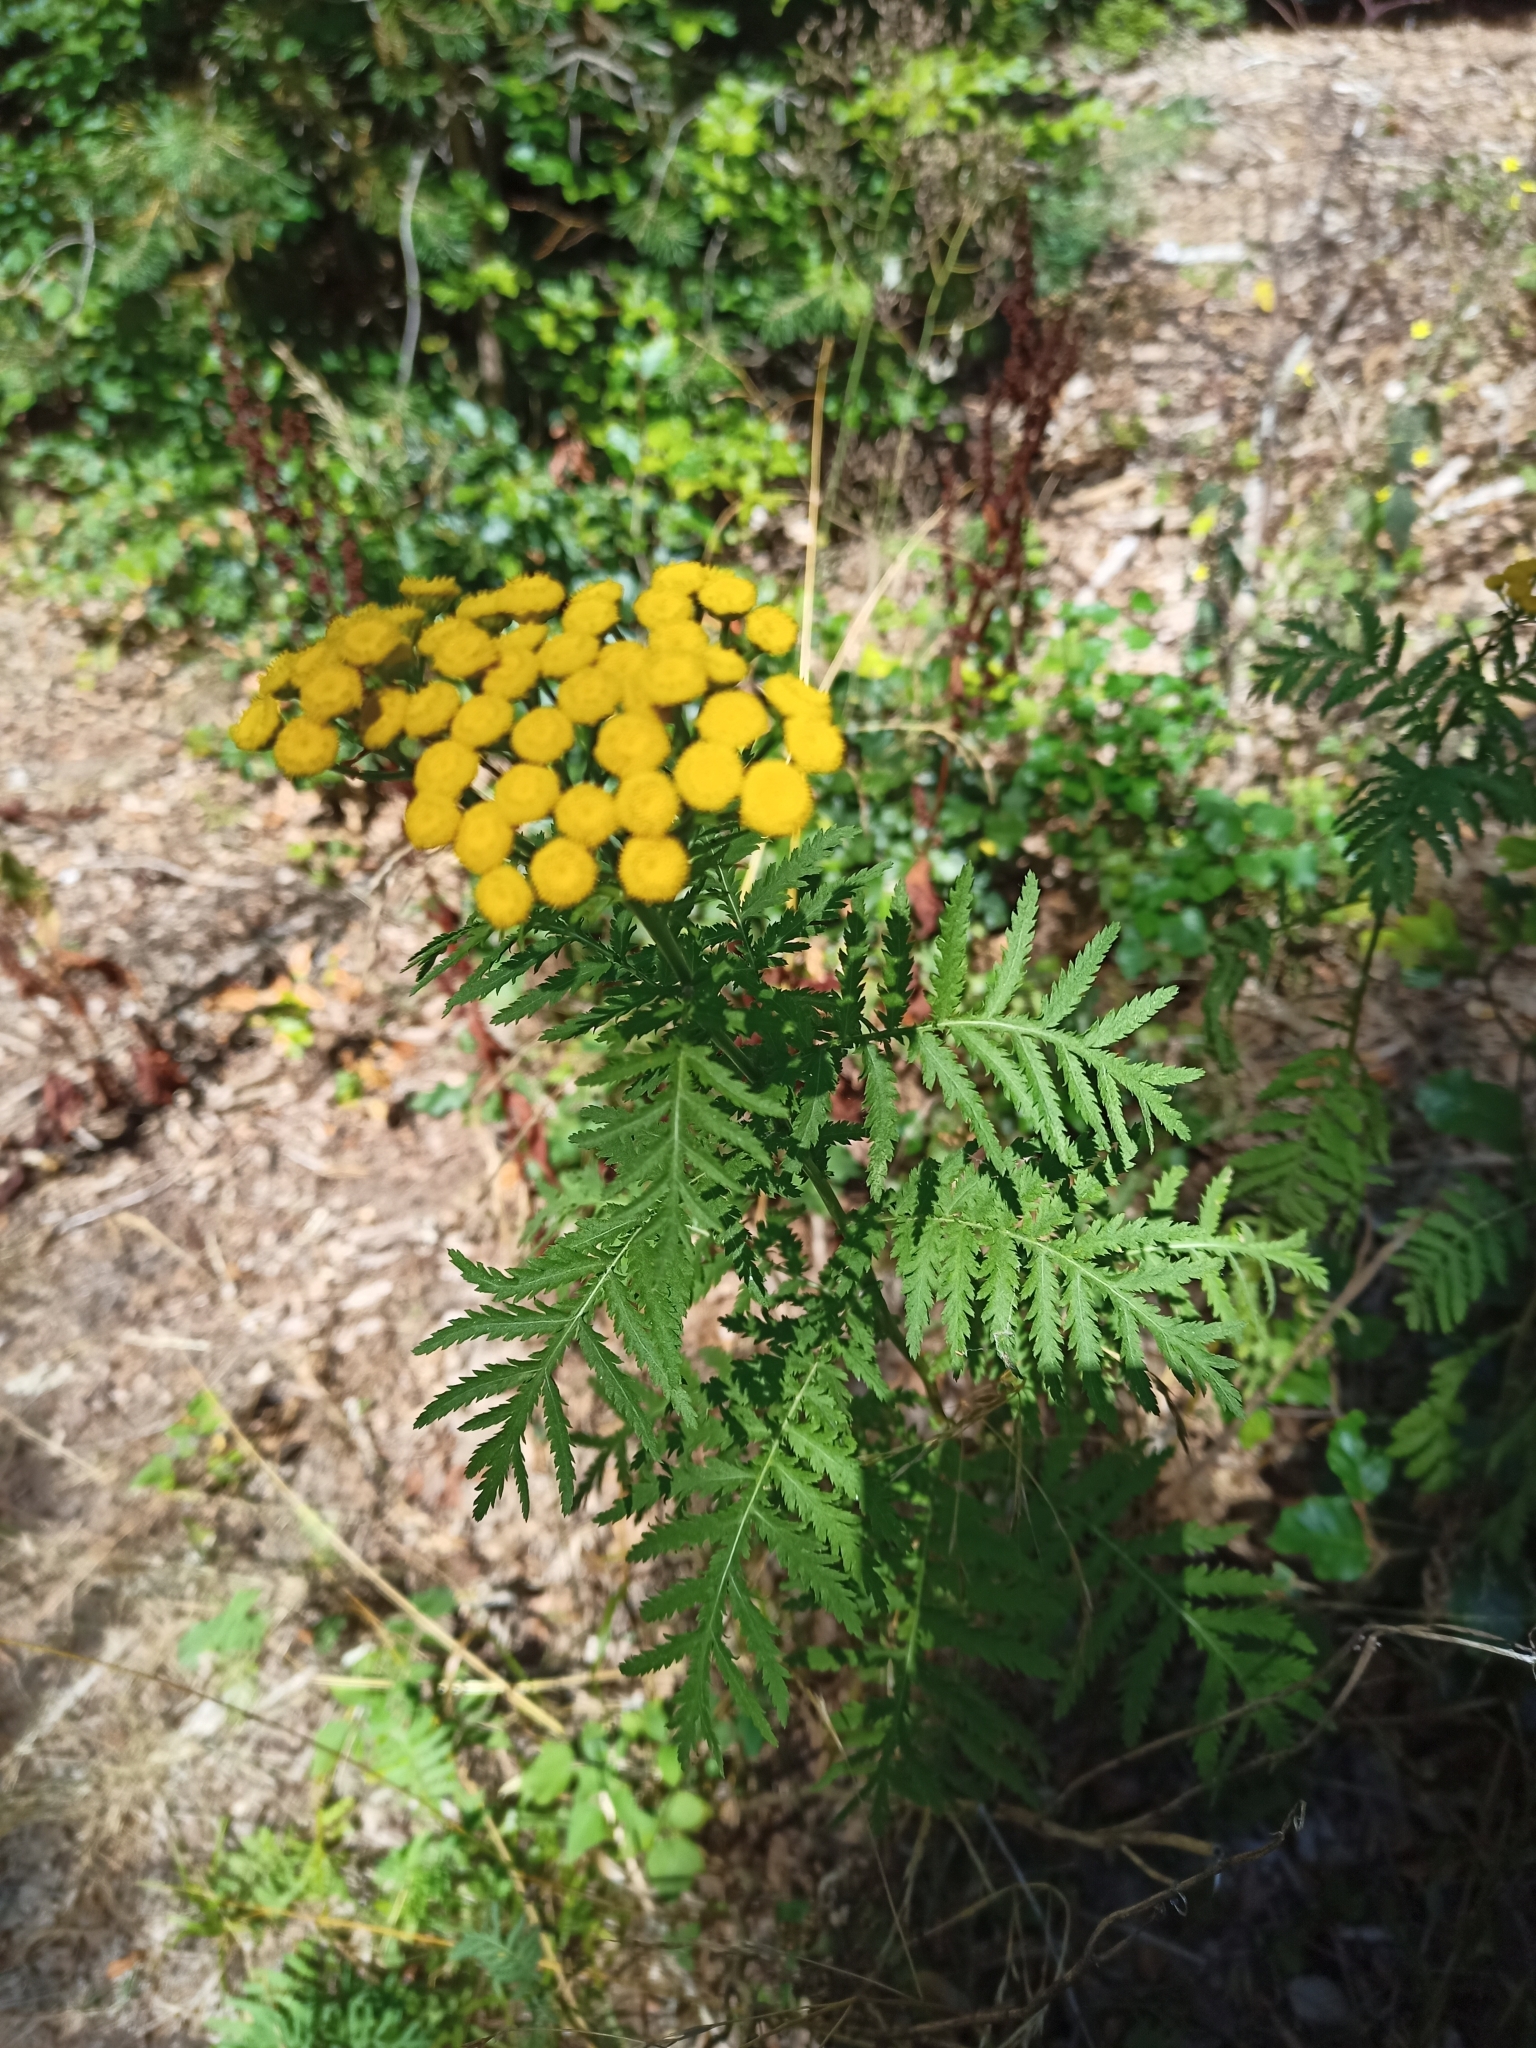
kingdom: Plantae
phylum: Tracheophyta
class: Magnoliopsida
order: Asterales
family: Asteraceae
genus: Tanacetum
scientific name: Tanacetum vulgare
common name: Common tansy
